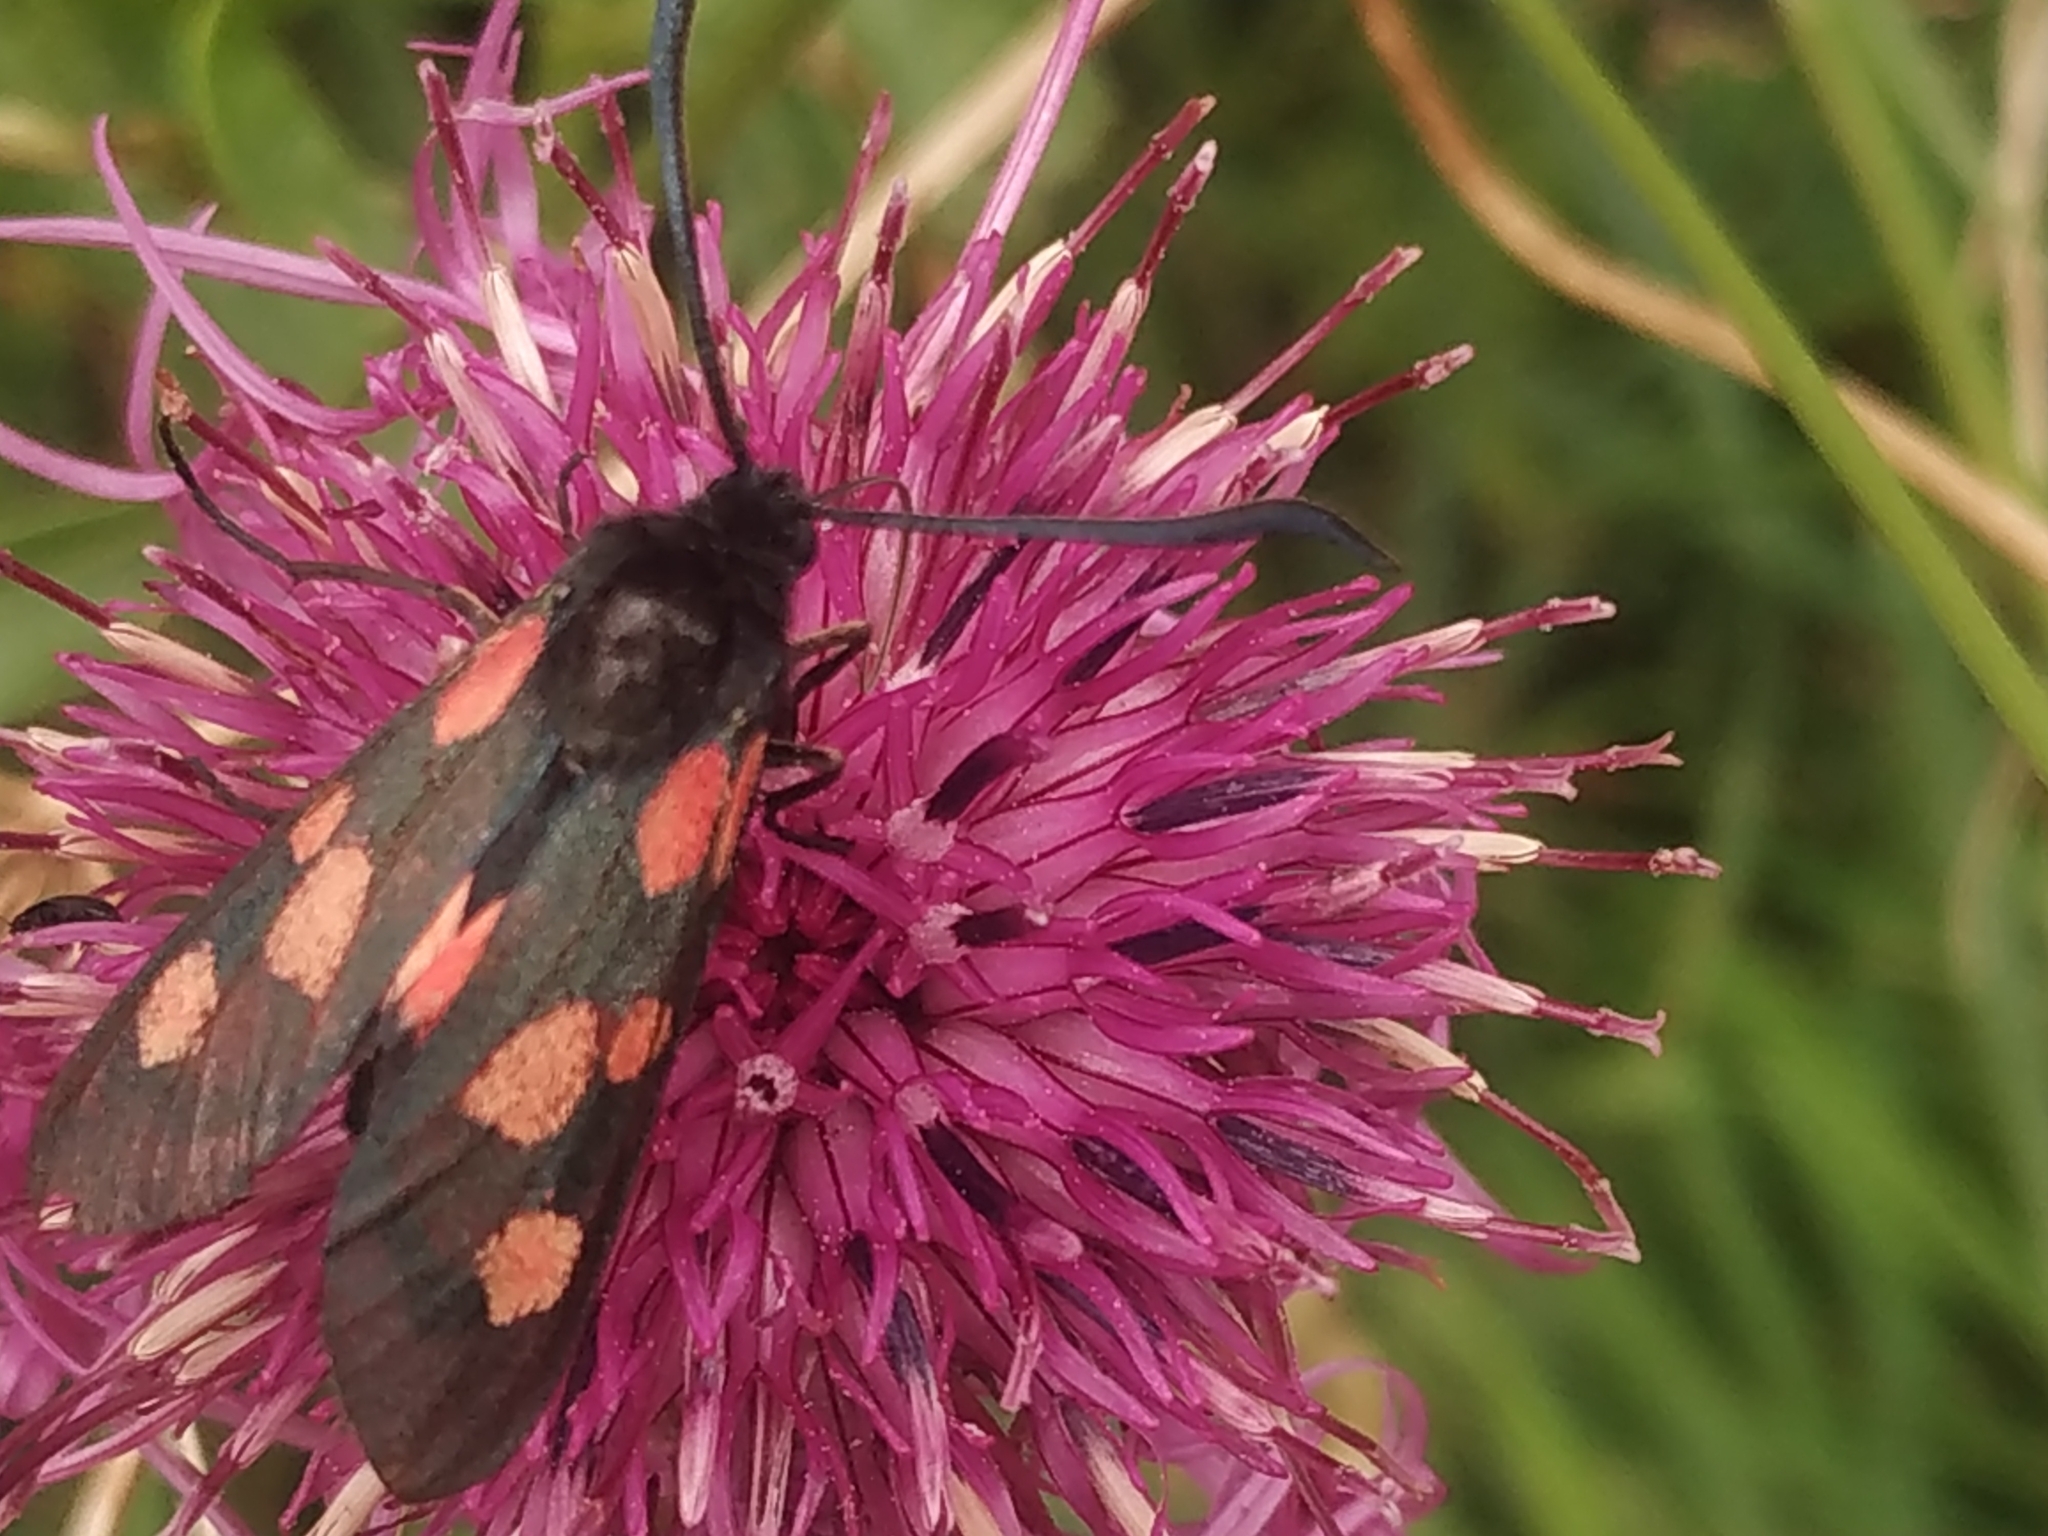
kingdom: Animalia
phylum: Arthropoda
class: Insecta
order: Lepidoptera
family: Zygaenidae
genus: Zygaena
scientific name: Zygaena lonicerae
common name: Narrow-bordered five-spot burnet
